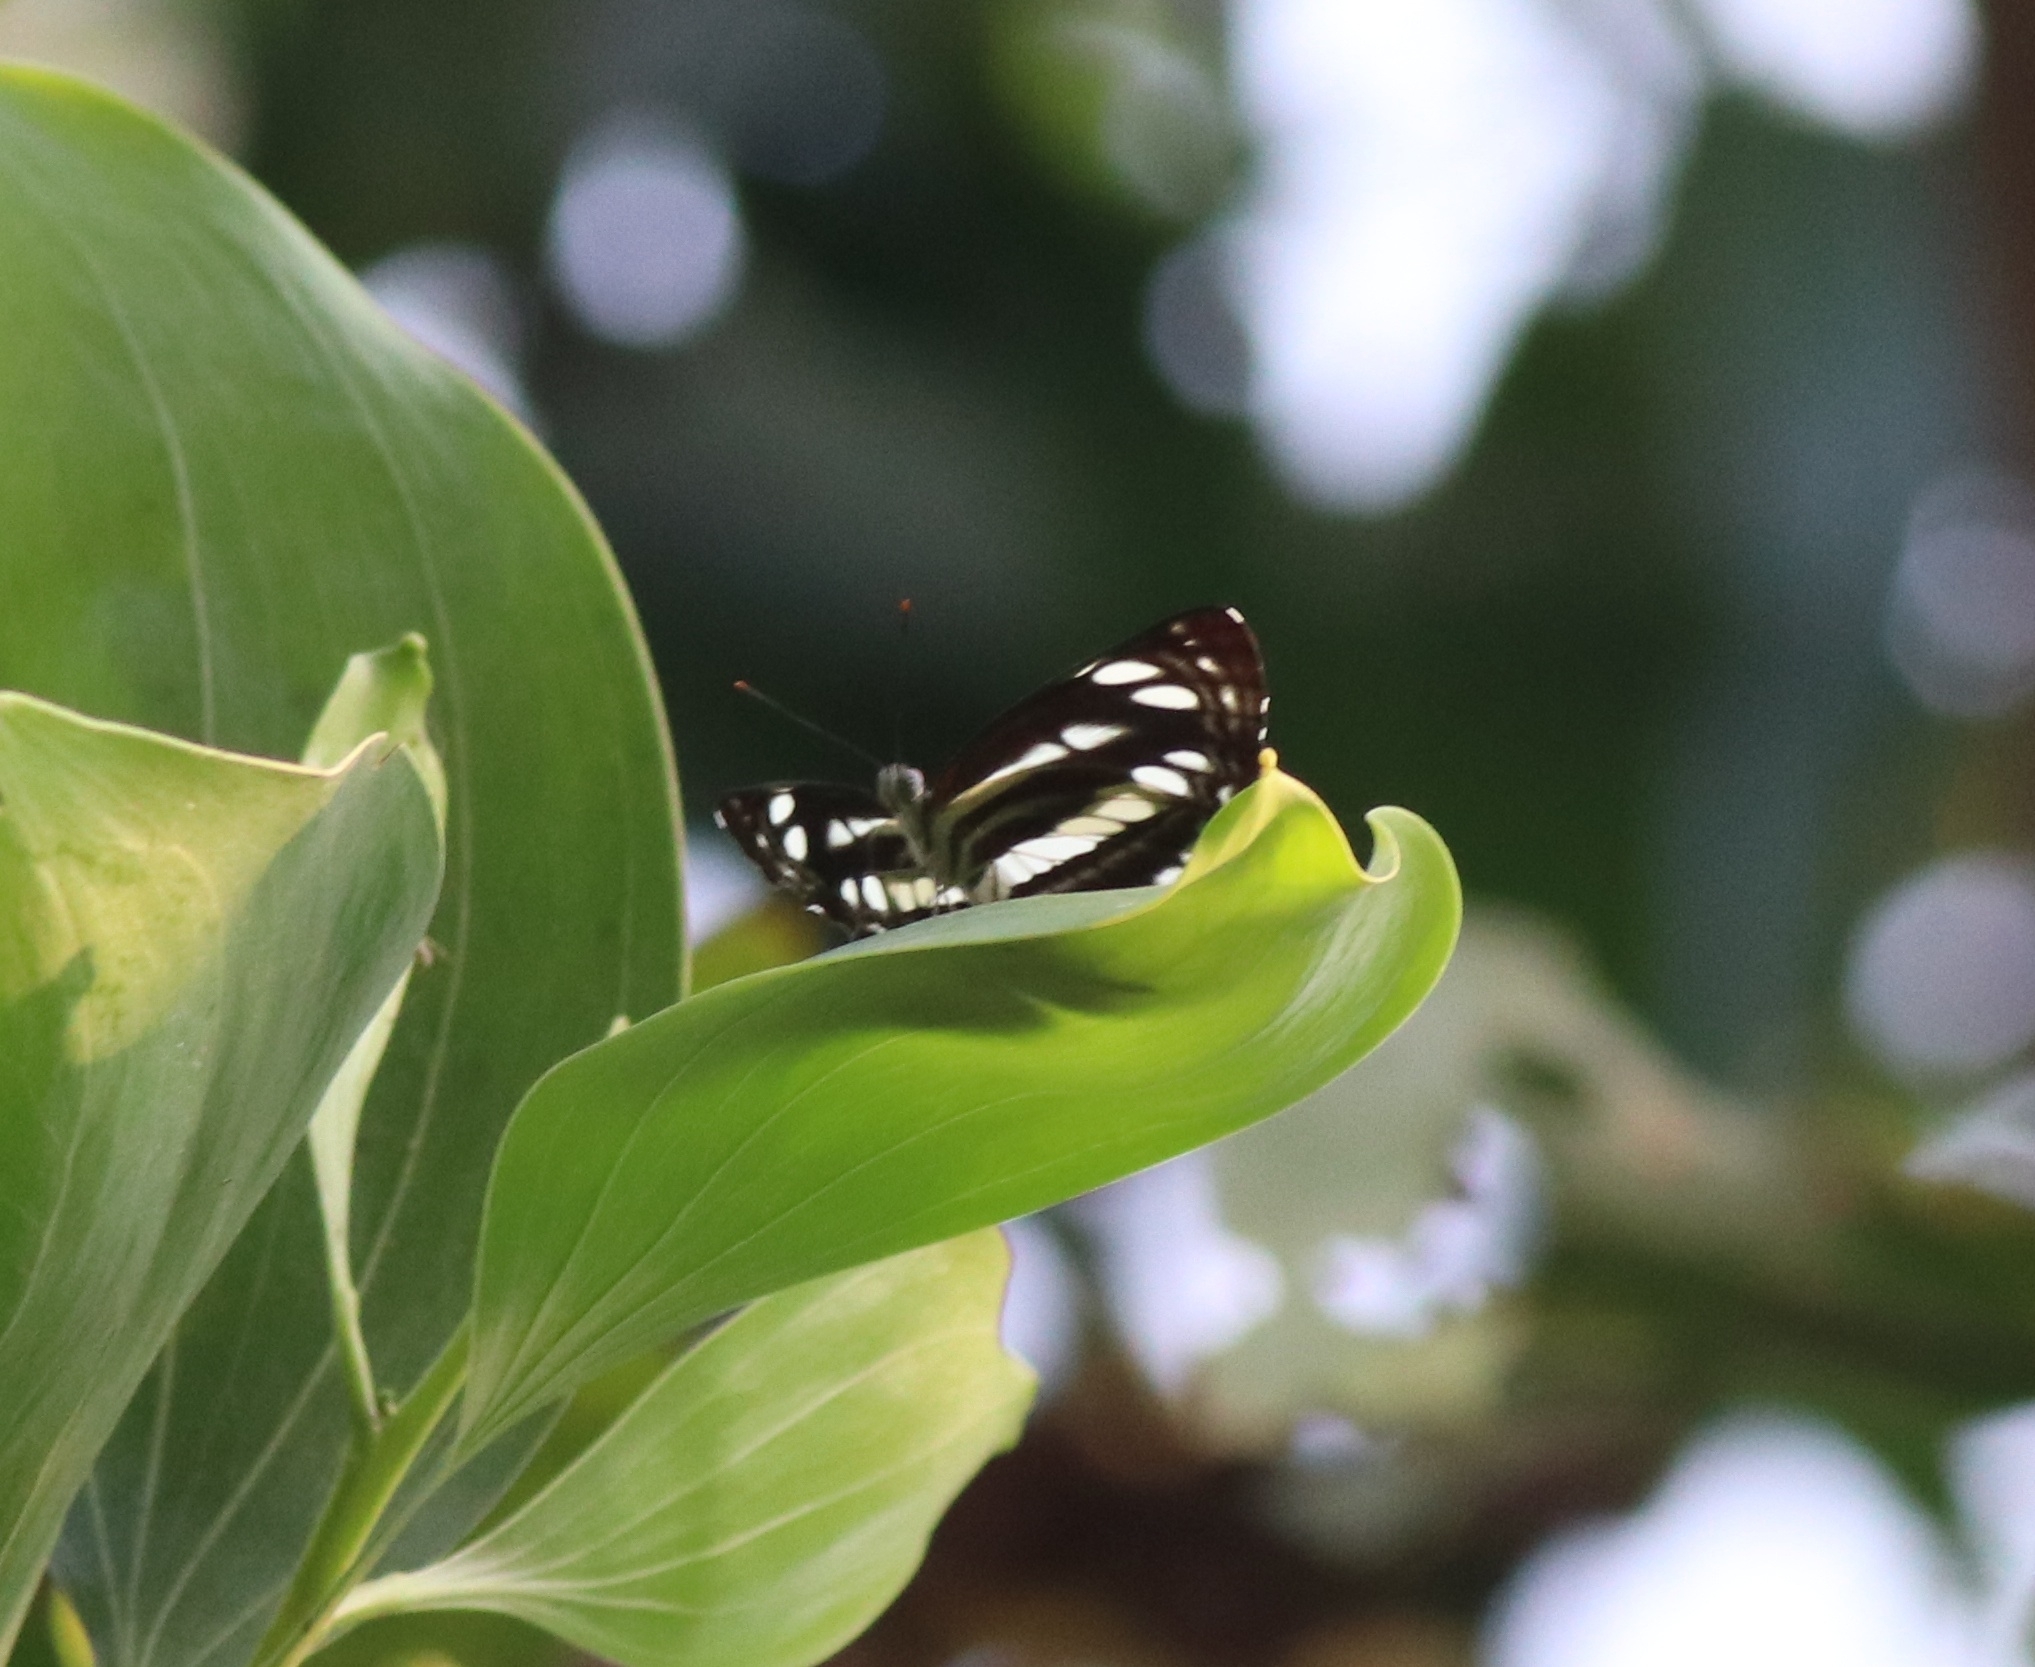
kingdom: Animalia
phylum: Arthropoda
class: Insecta
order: Lepidoptera
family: Nymphalidae
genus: Neptis
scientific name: Neptis hylas
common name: Common sailer
